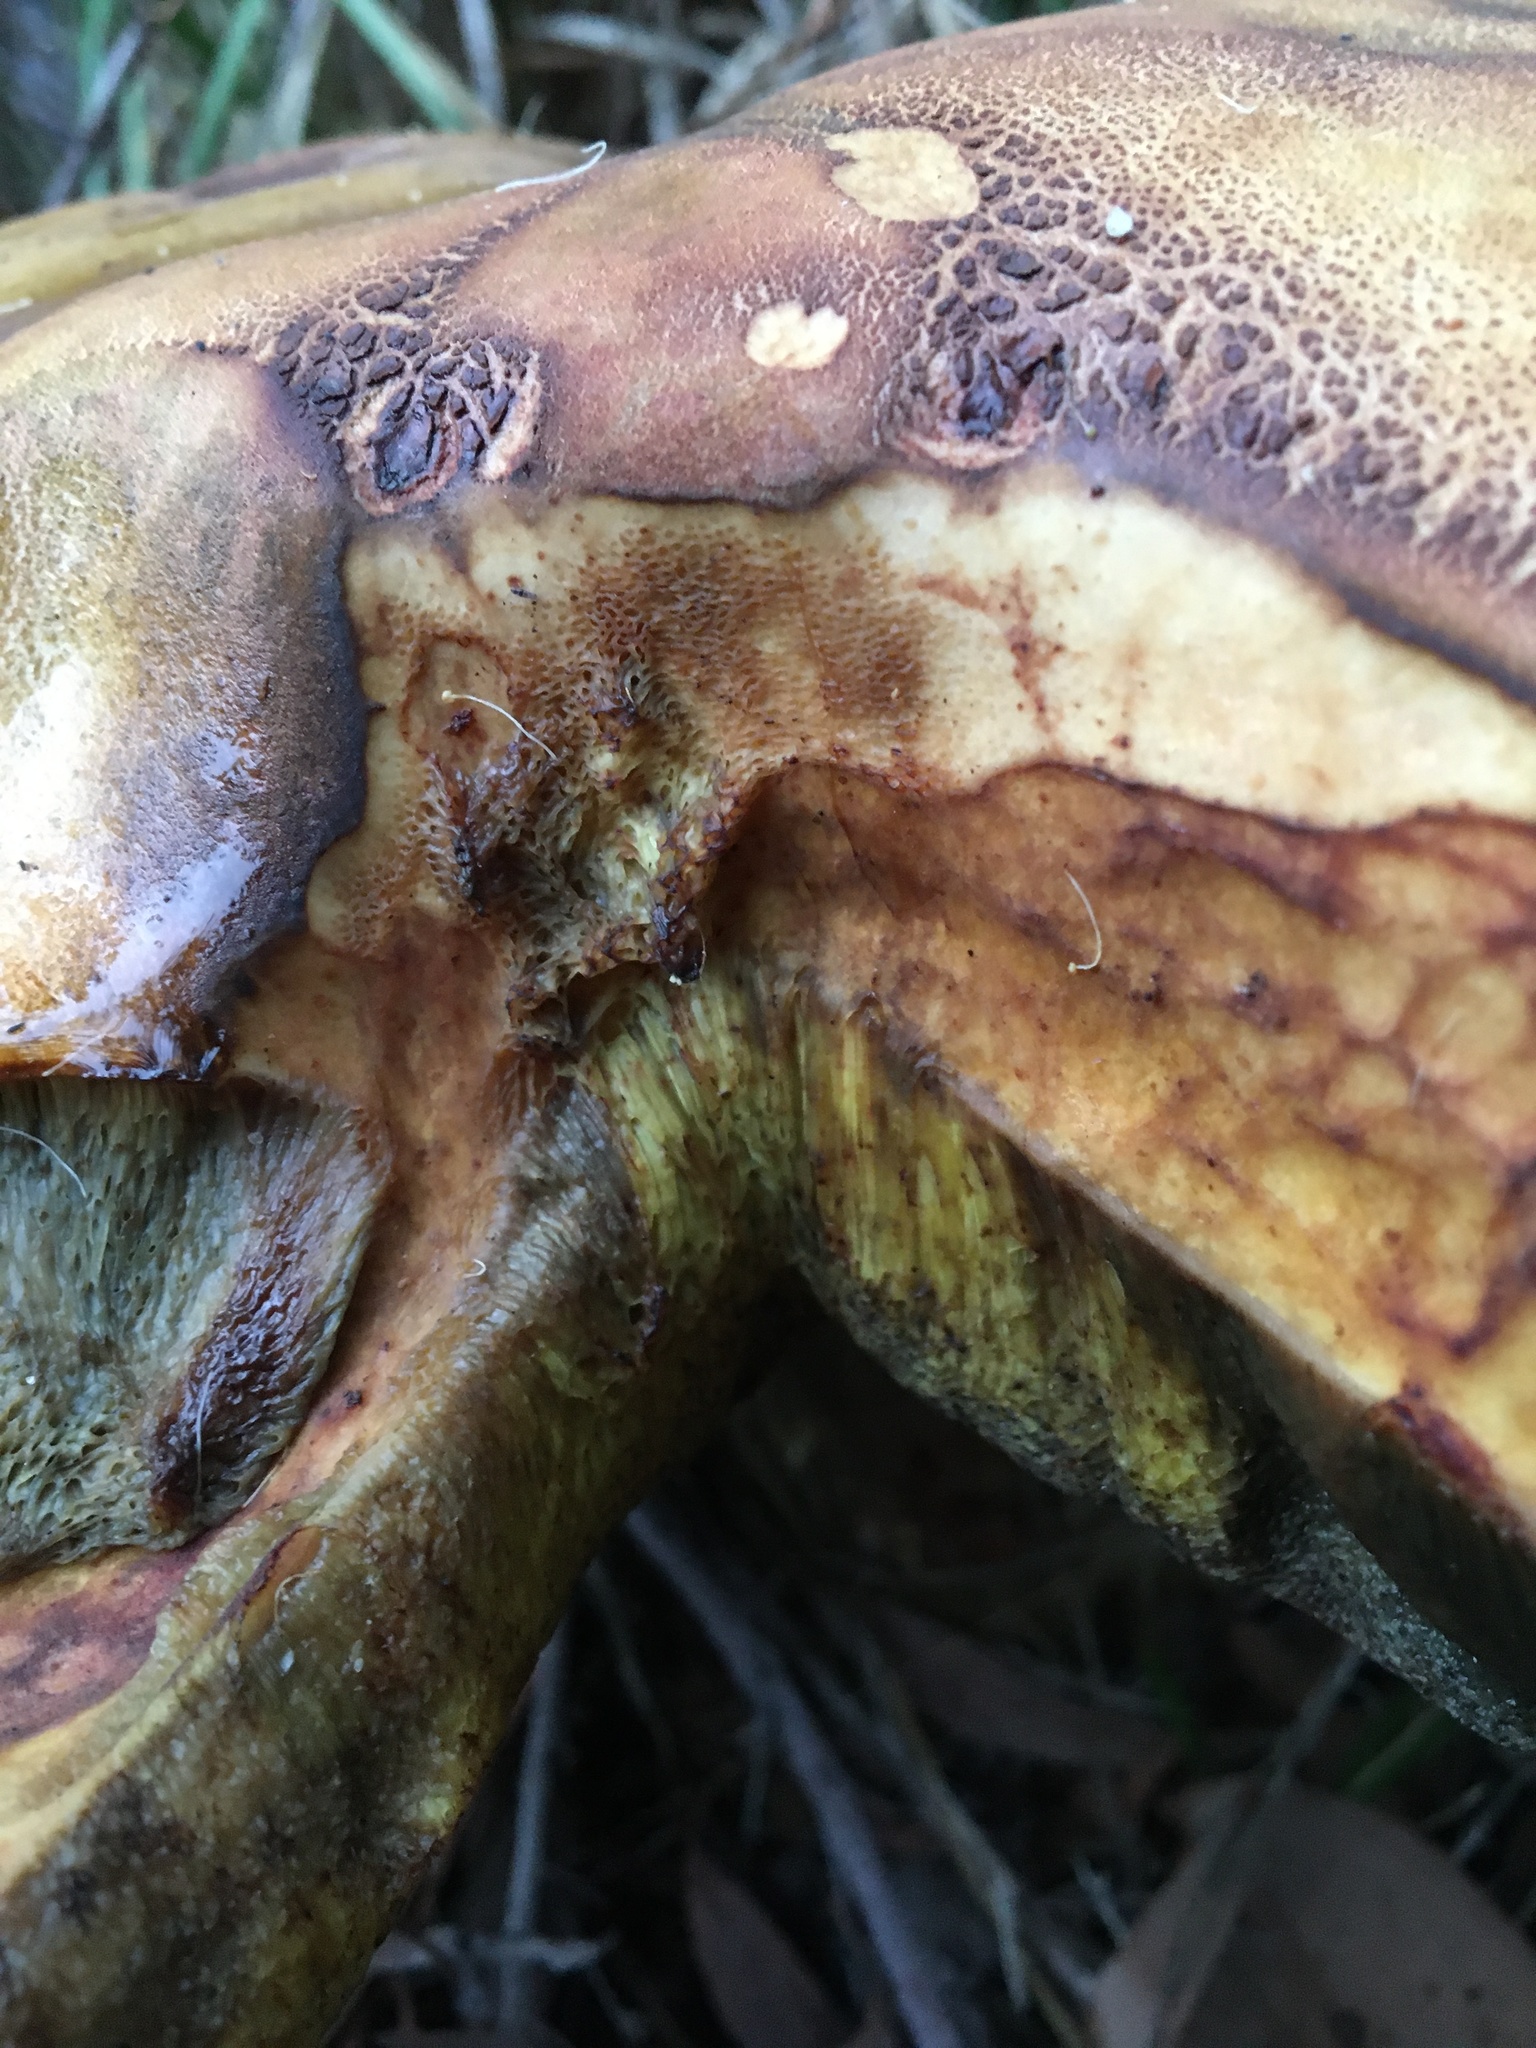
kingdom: Fungi
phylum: Basidiomycota
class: Agaricomycetes
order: Boletales
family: Boletinellaceae
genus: Phlebopus
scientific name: Phlebopus marginatus
